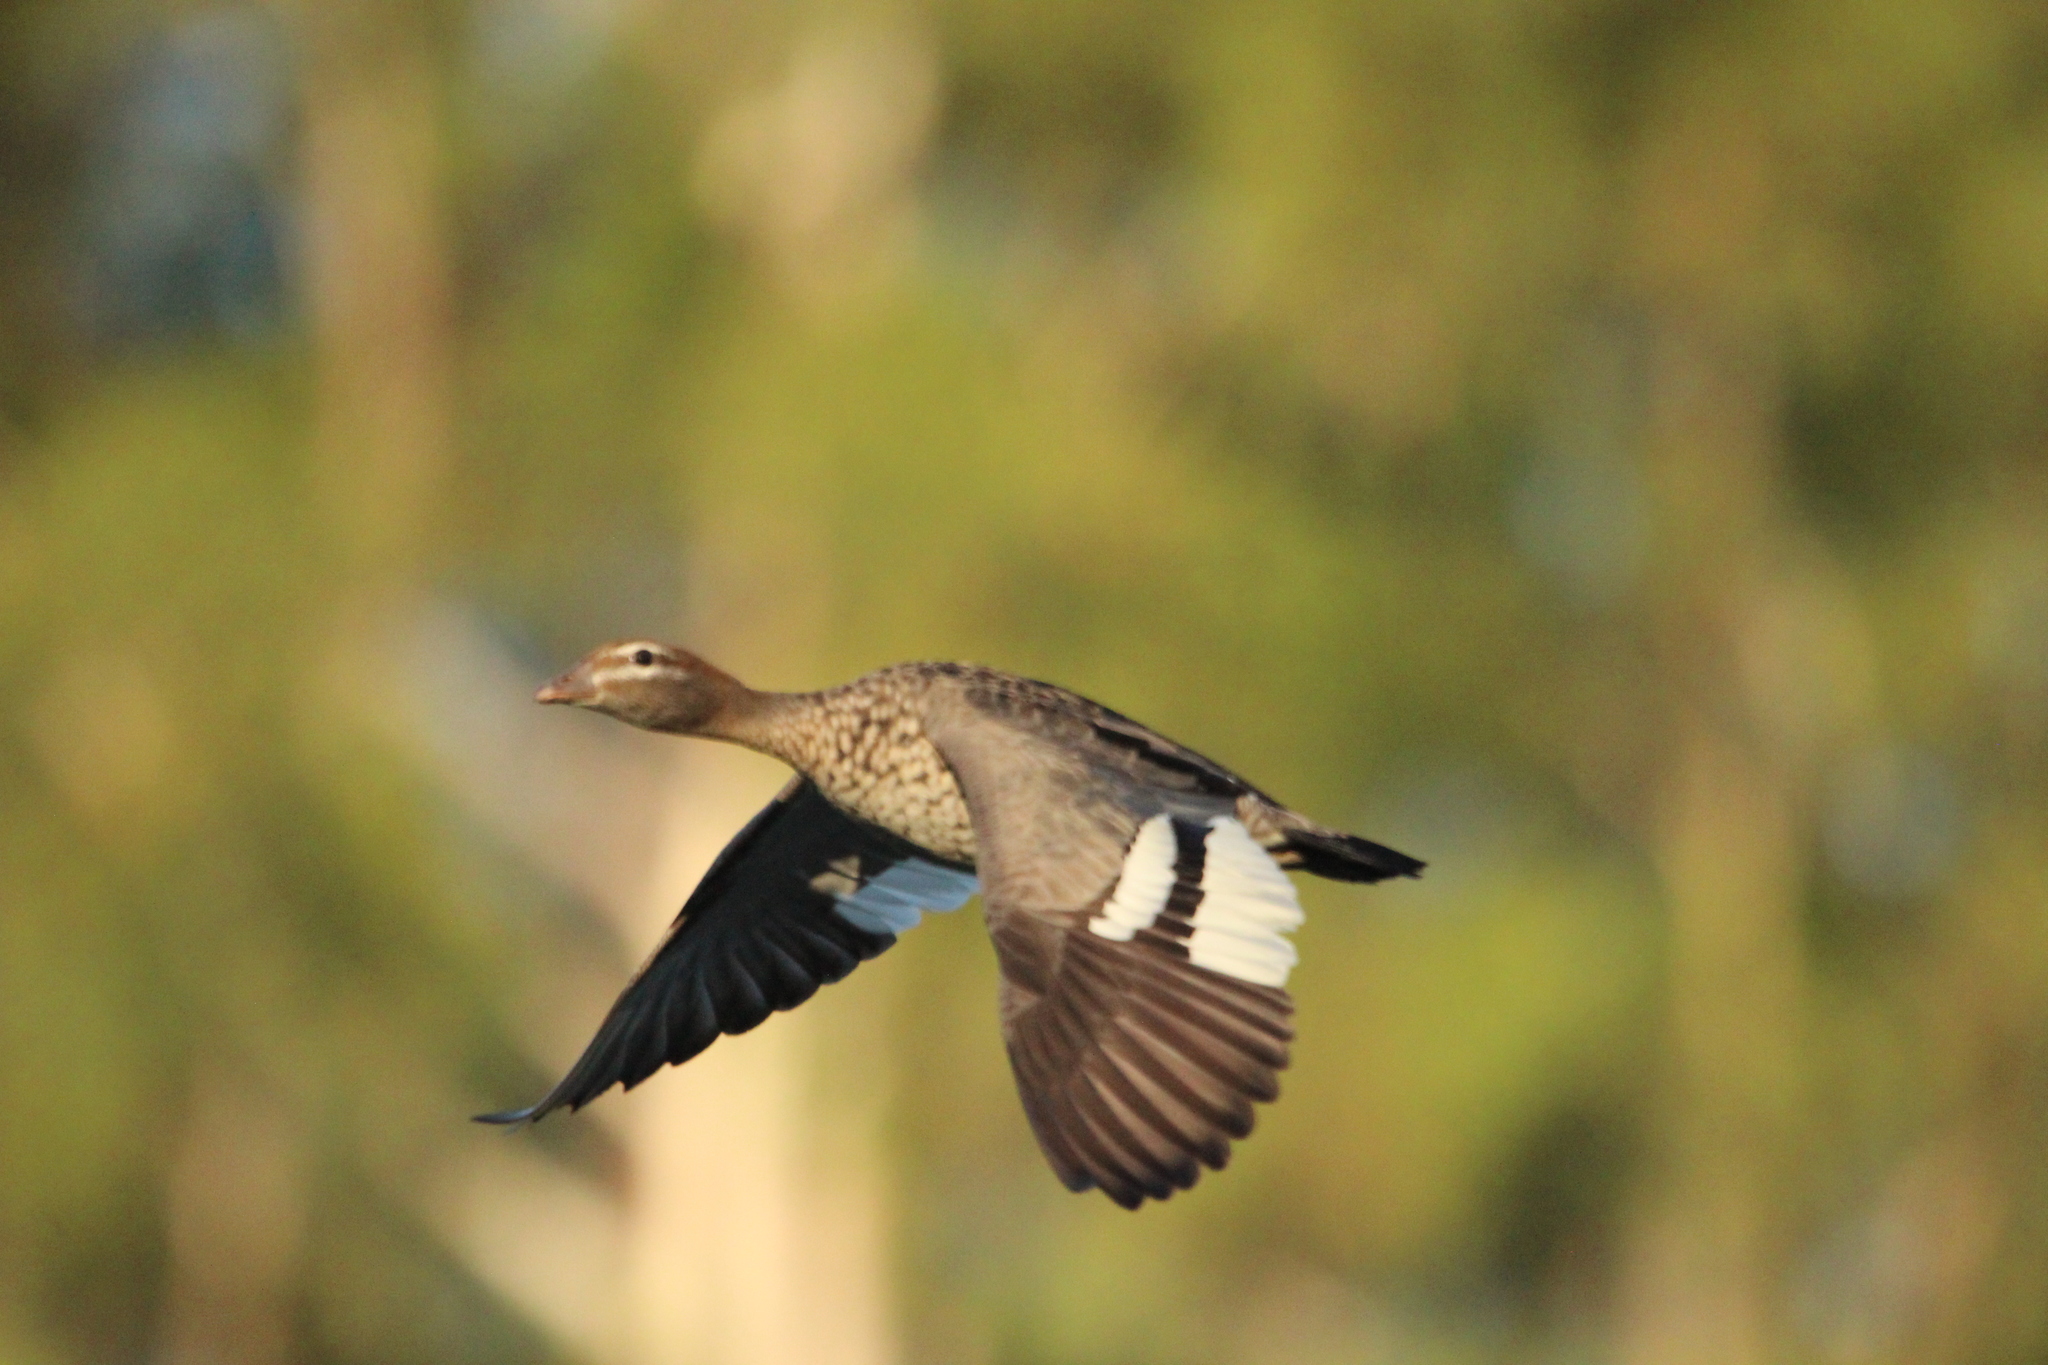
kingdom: Animalia
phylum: Chordata
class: Aves
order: Anseriformes
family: Anatidae
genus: Chenonetta
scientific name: Chenonetta jubata
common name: Maned duck
